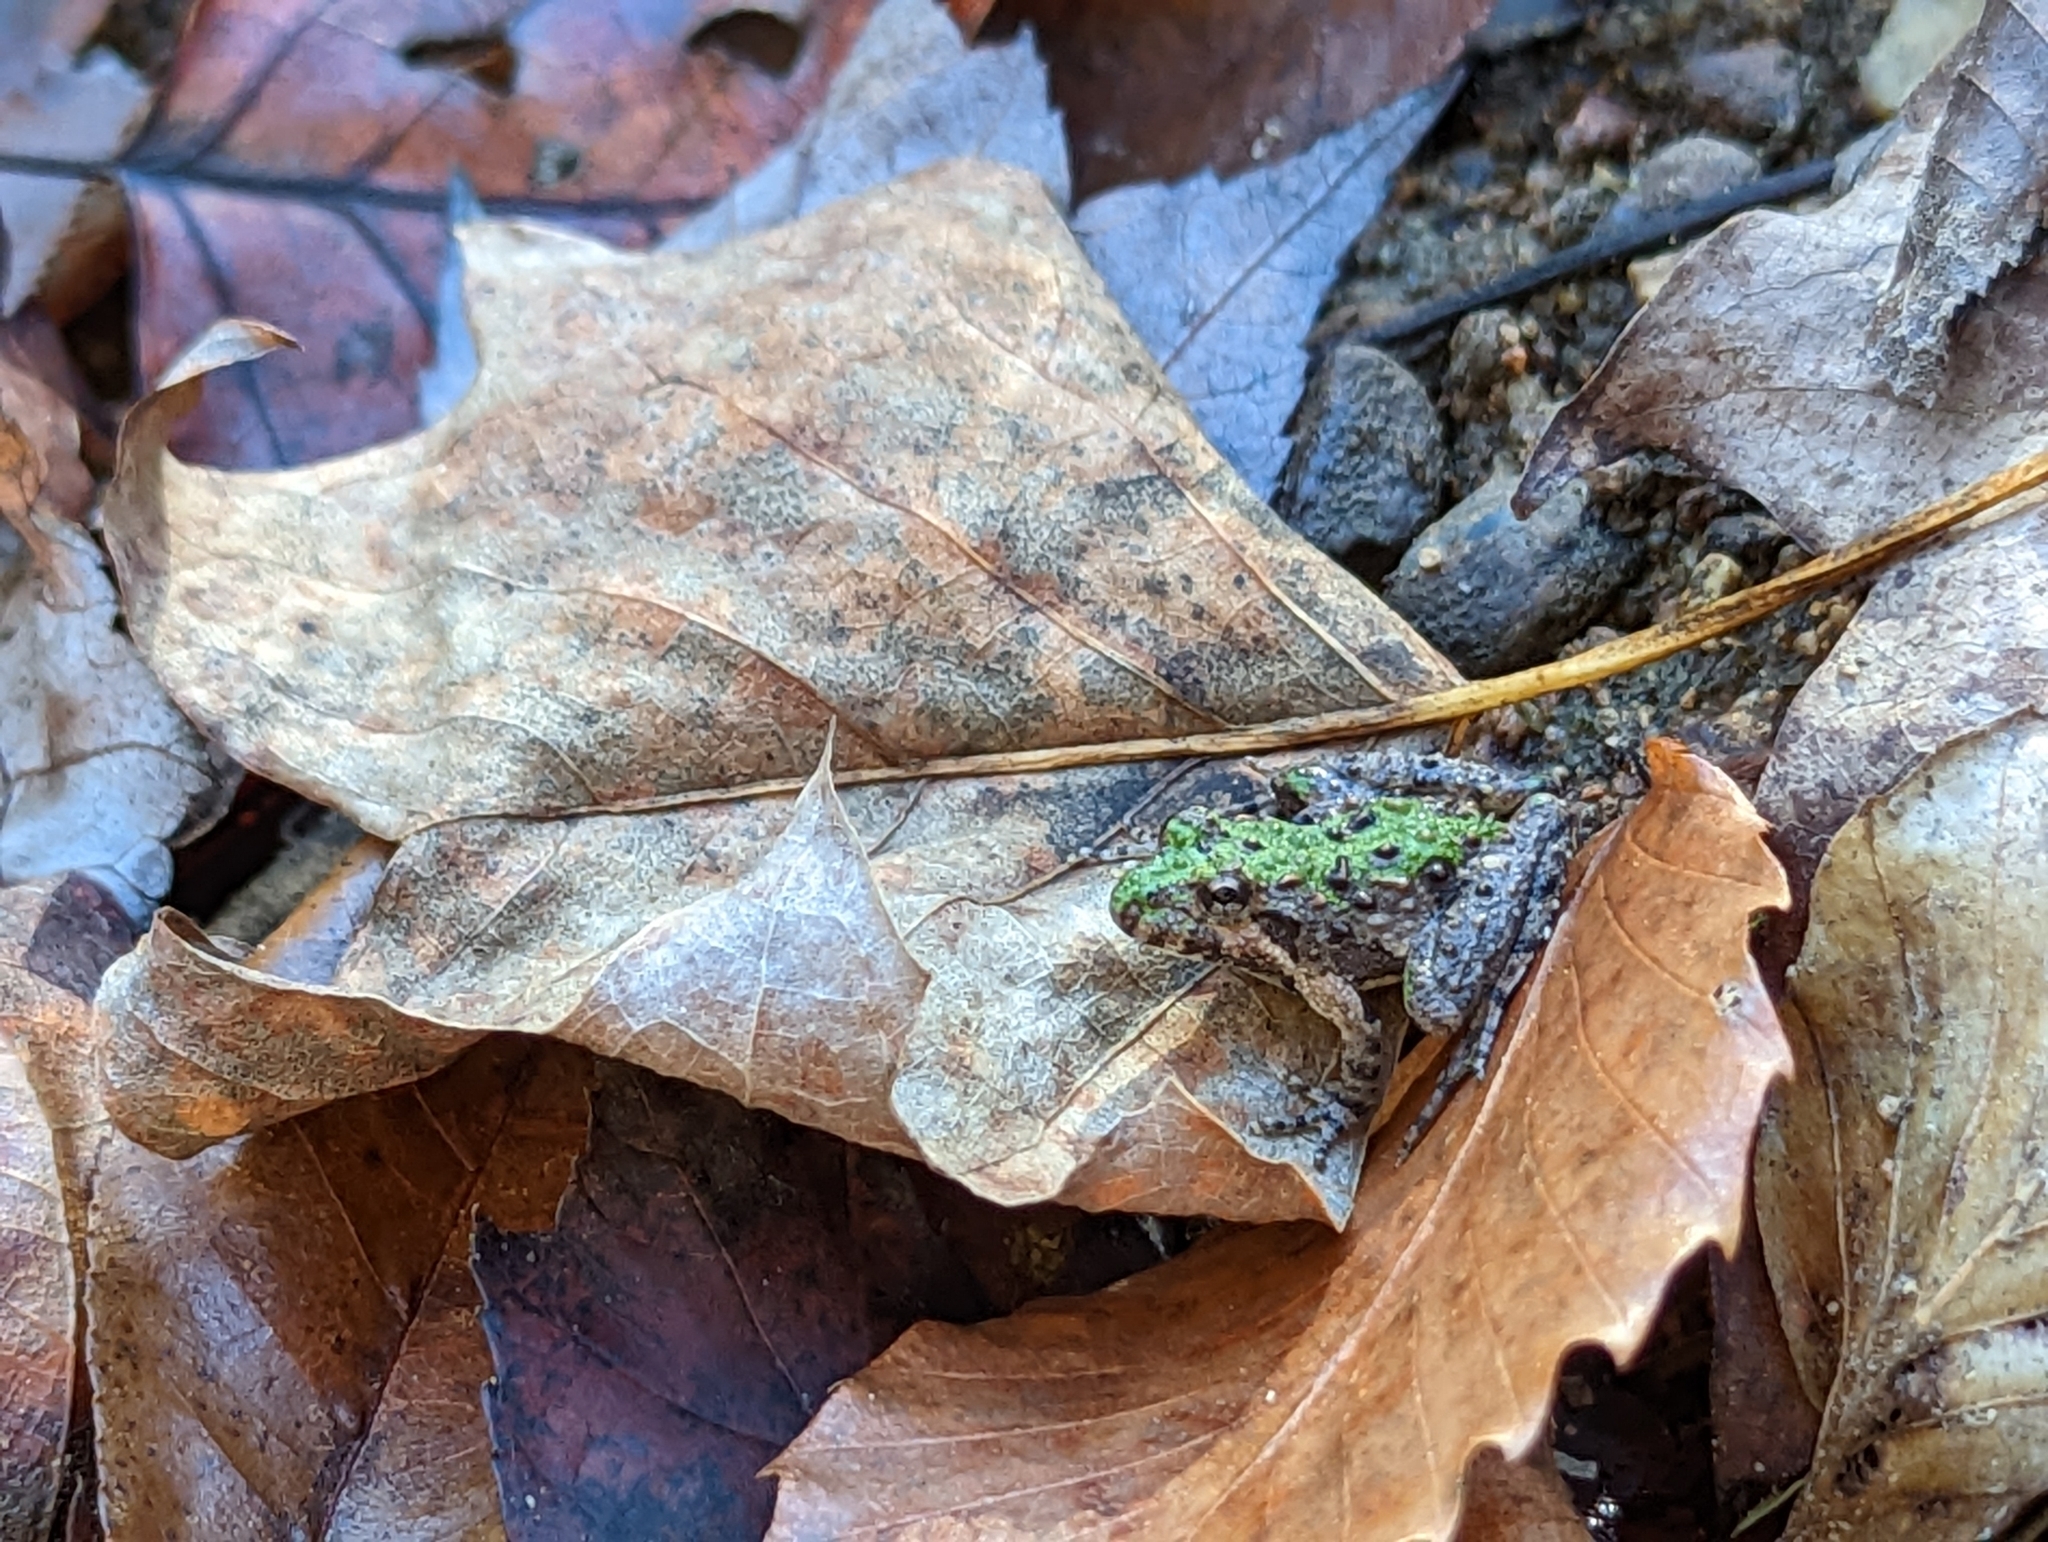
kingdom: Animalia
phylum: Chordata
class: Amphibia
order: Anura
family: Hylidae
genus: Acris
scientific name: Acris crepitans
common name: Northern cricket frog
